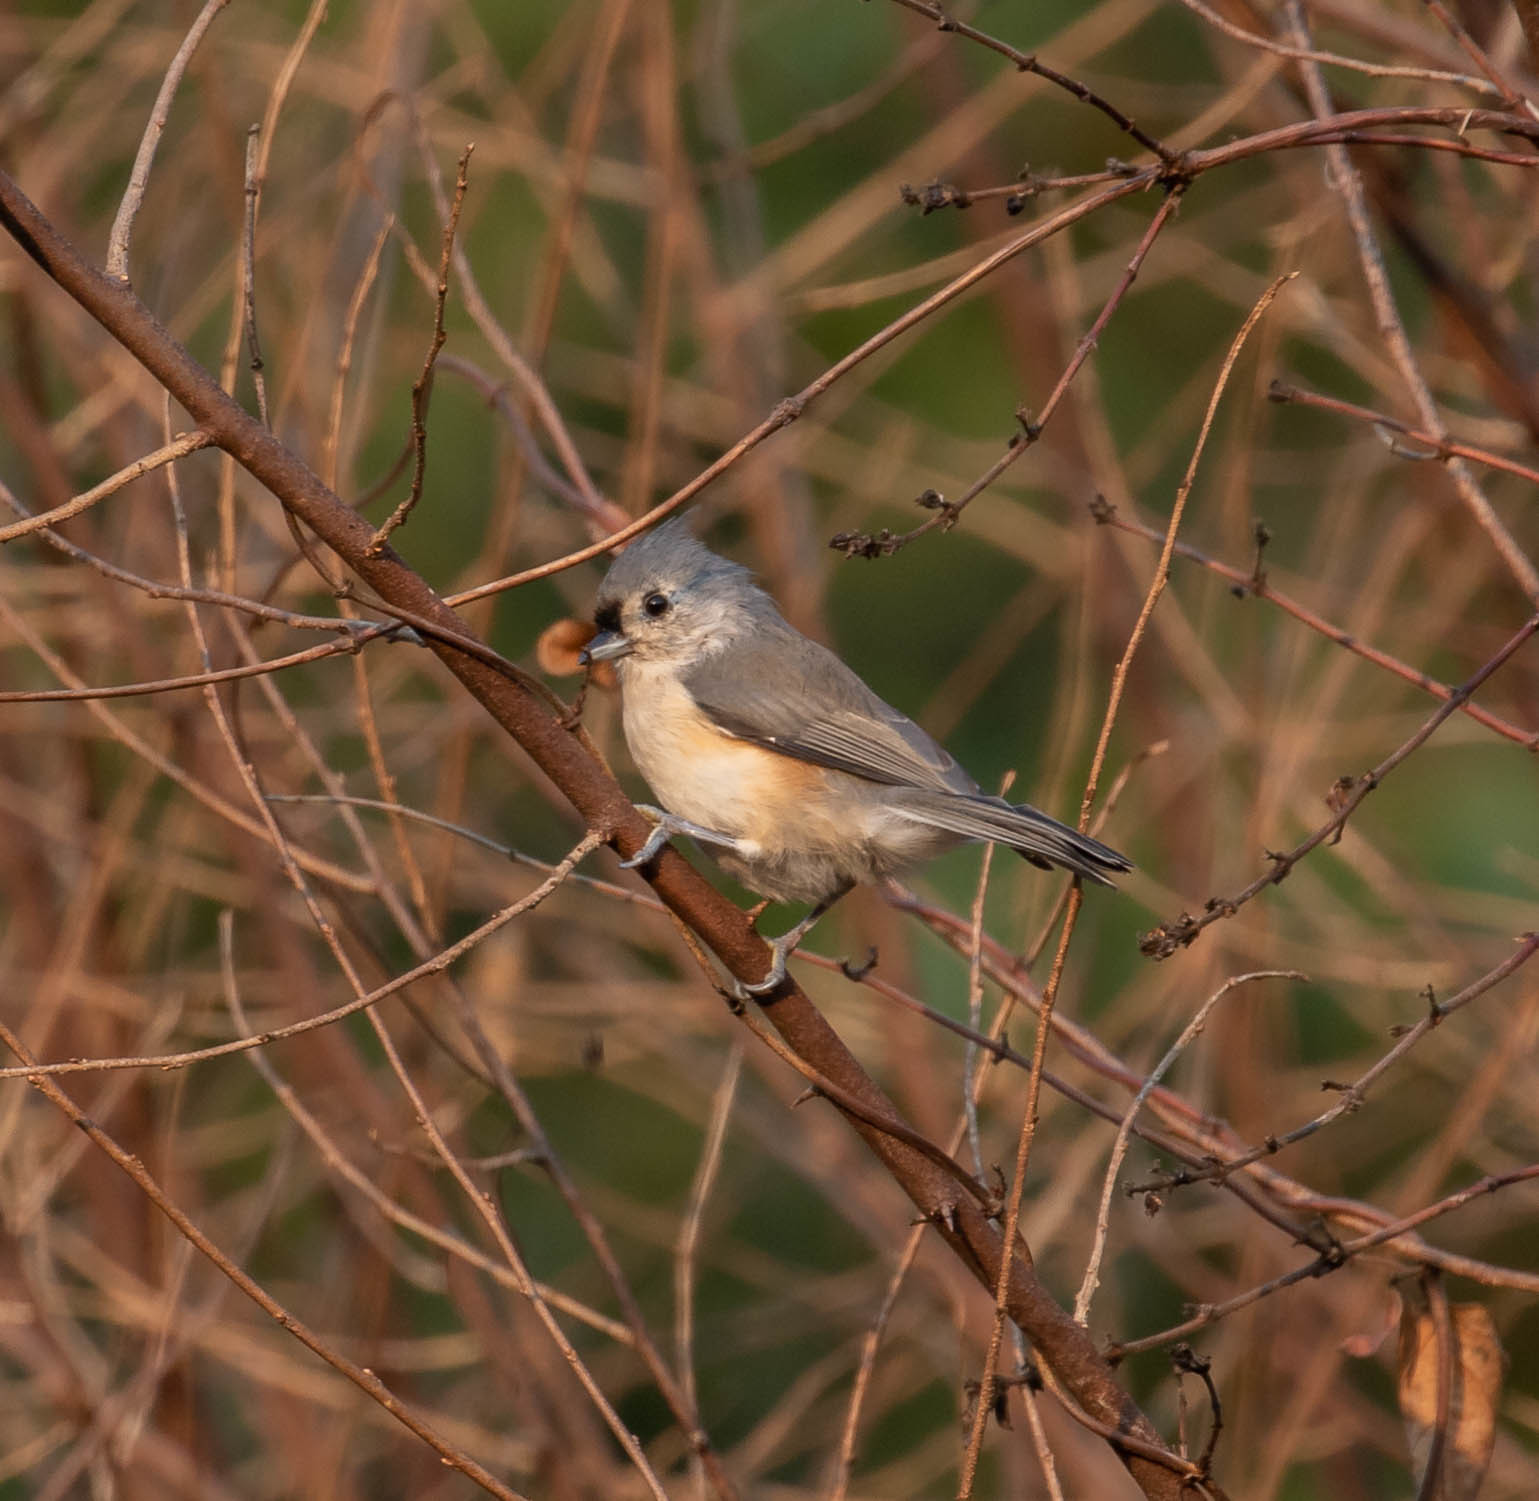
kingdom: Animalia
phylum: Chordata
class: Aves
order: Passeriformes
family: Paridae
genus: Baeolophus
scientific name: Baeolophus bicolor
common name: Tufted titmouse
